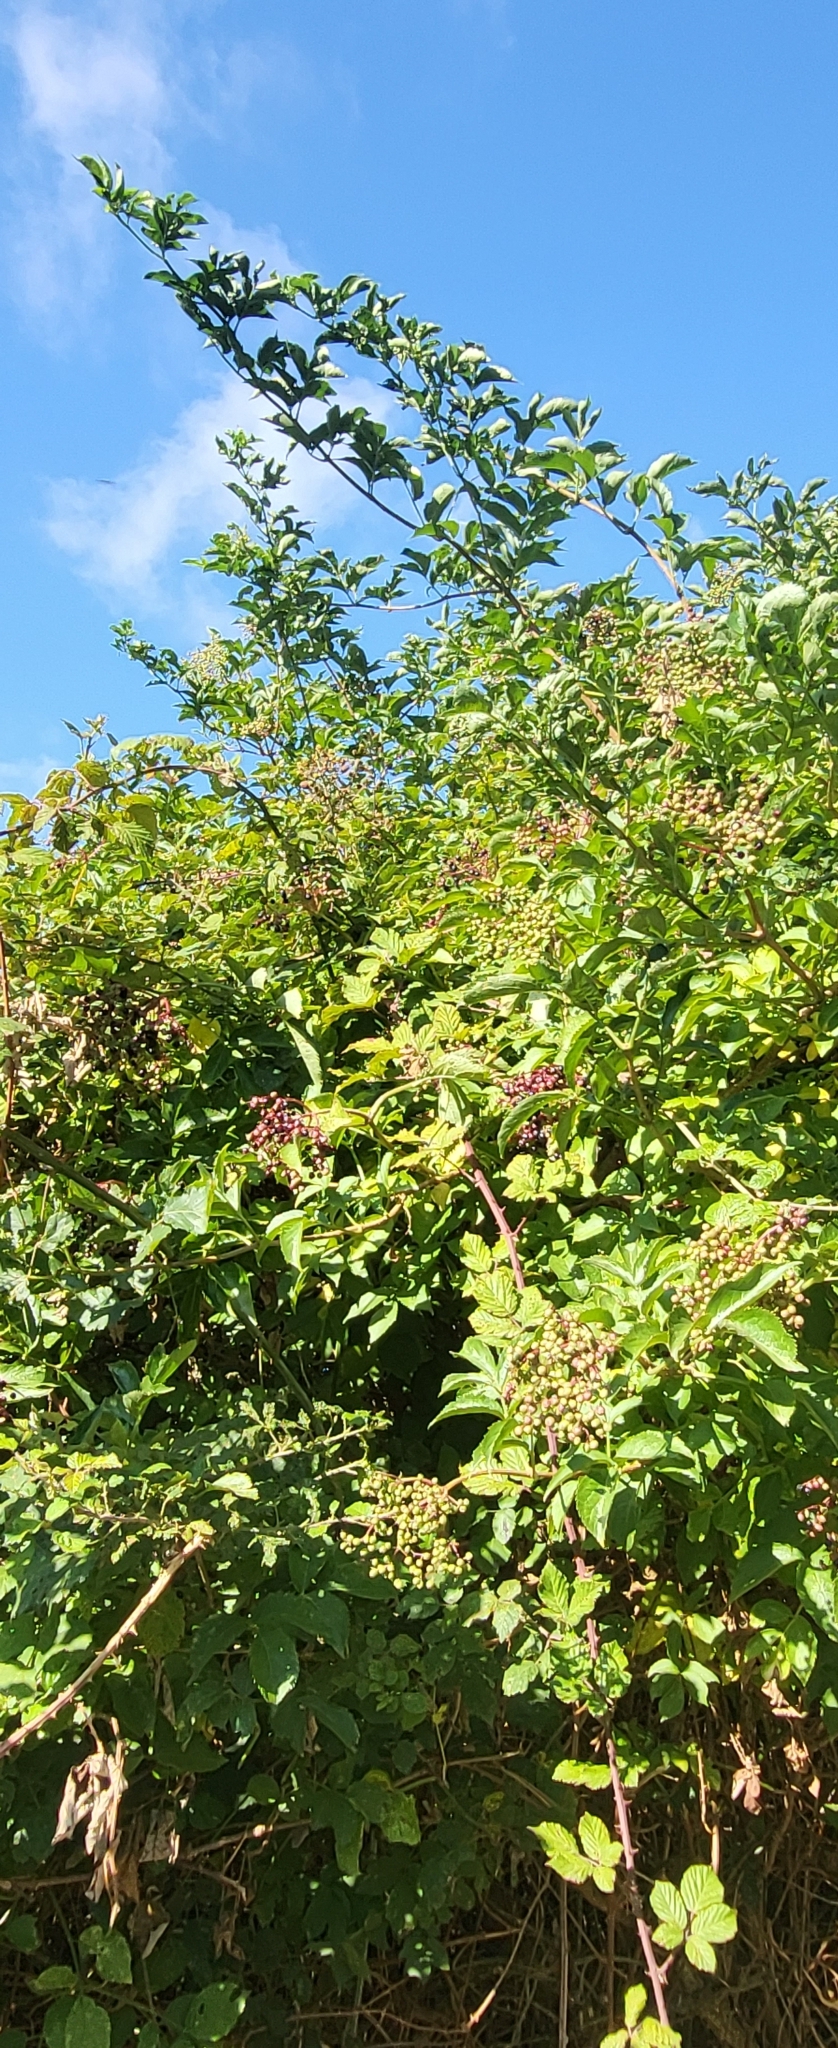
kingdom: Plantae
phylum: Tracheophyta
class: Magnoliopsida
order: Dipsacales
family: Viburnaceae
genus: Sambucus
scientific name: Sambucus nigra
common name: Elder
